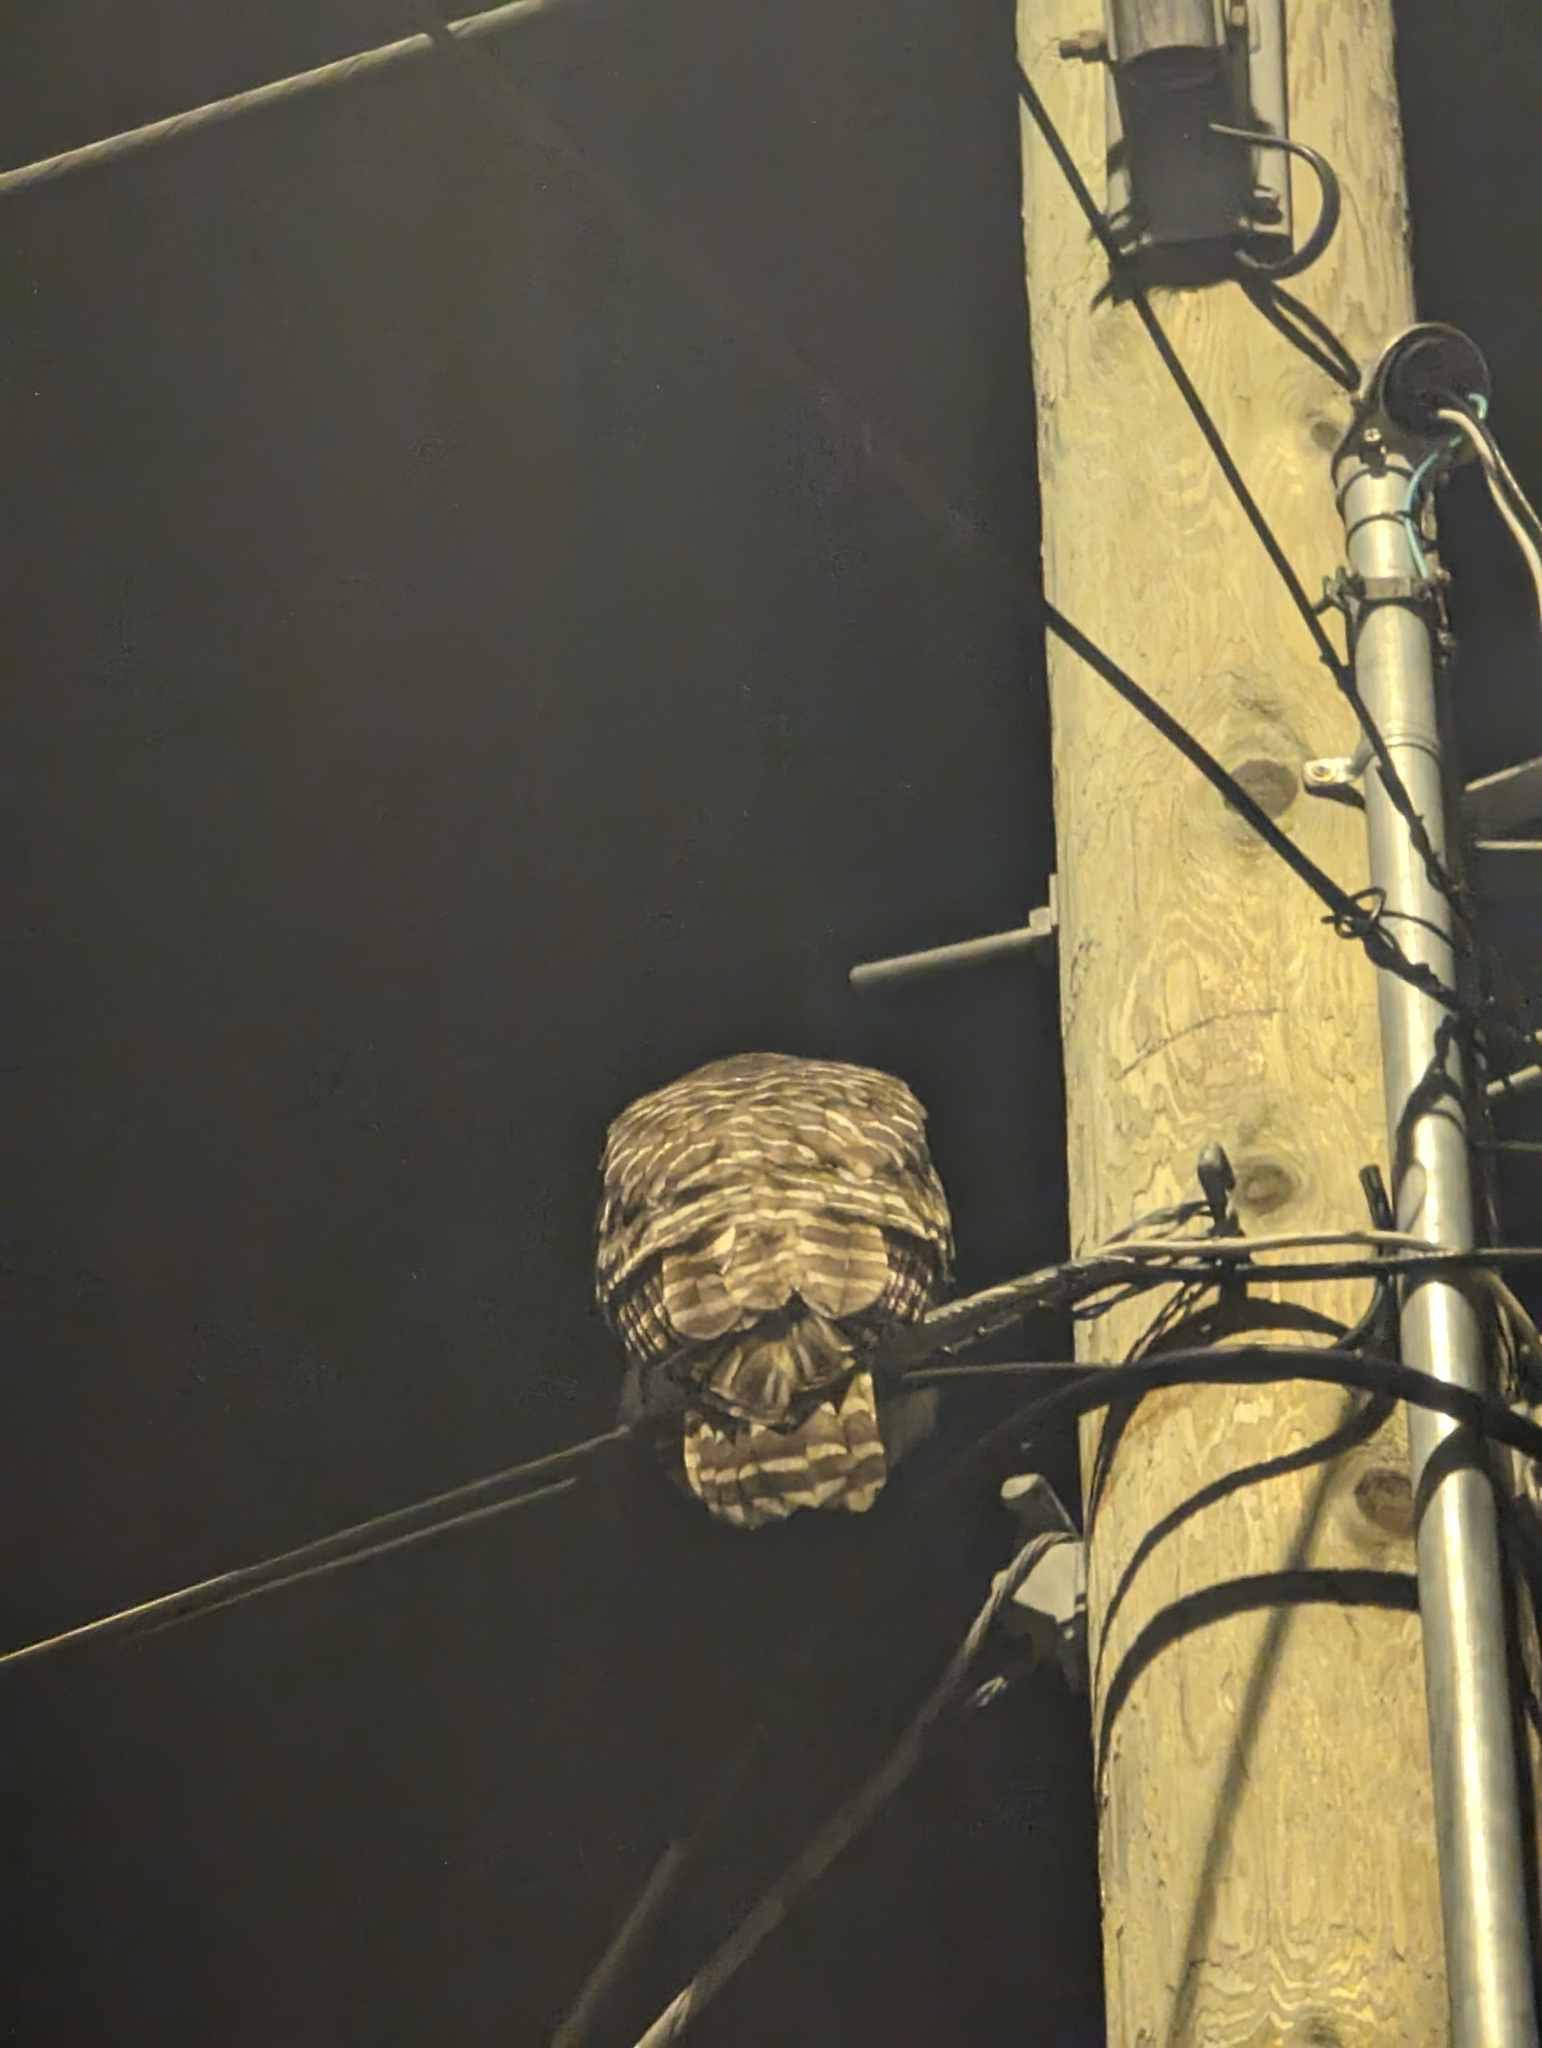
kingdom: Animalia
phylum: Chordata
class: Aves
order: Strigiformes
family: Strigidae
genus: Strix
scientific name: Strix varia
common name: Barred owl
